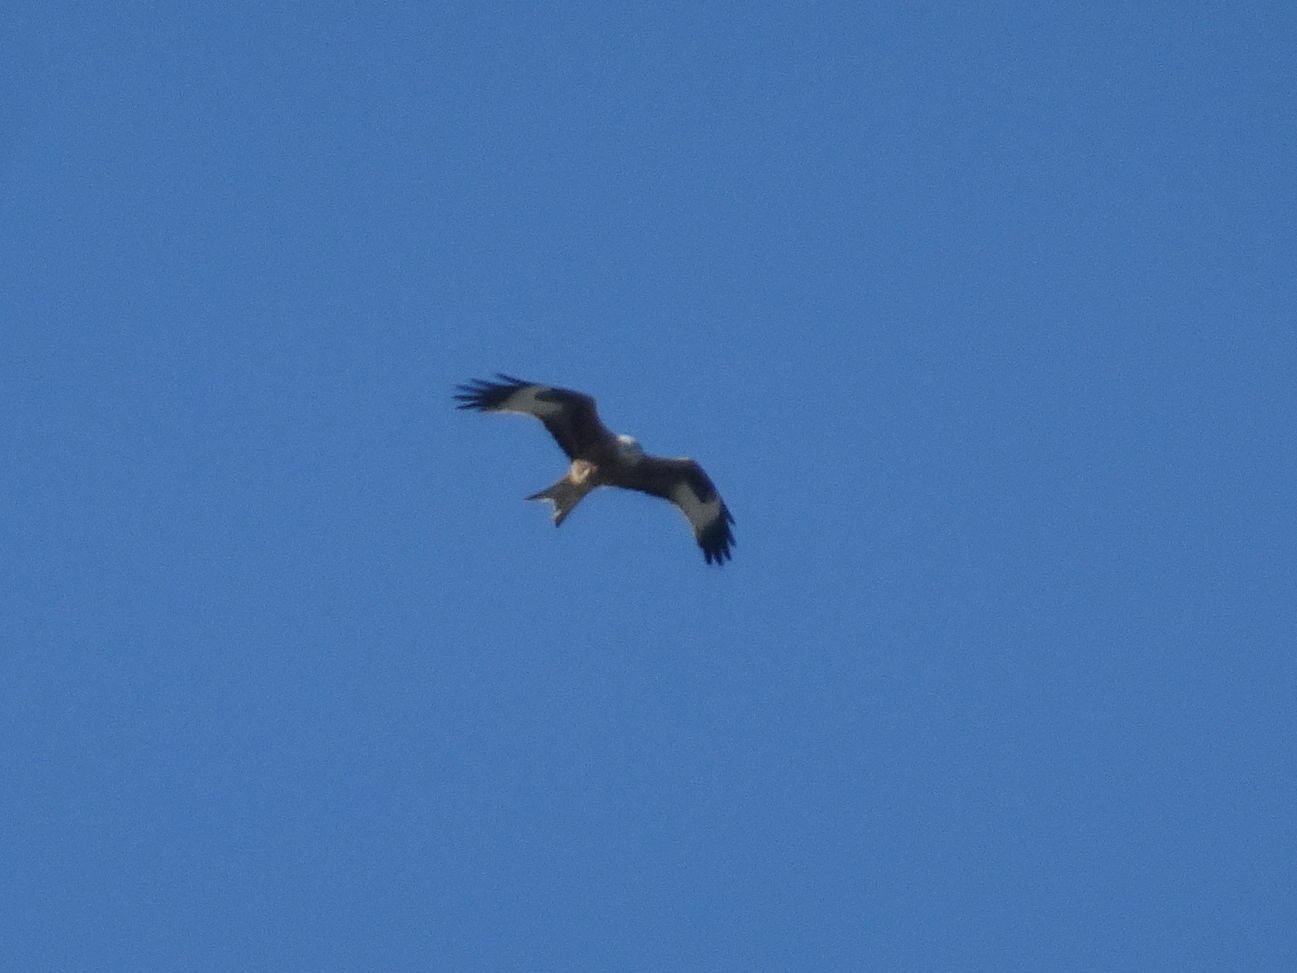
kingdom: Animalia
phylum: Chordata
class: Aves
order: Accipitriformes
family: Accipitridae
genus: Milvus
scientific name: Milvus milvus
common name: Red kite
